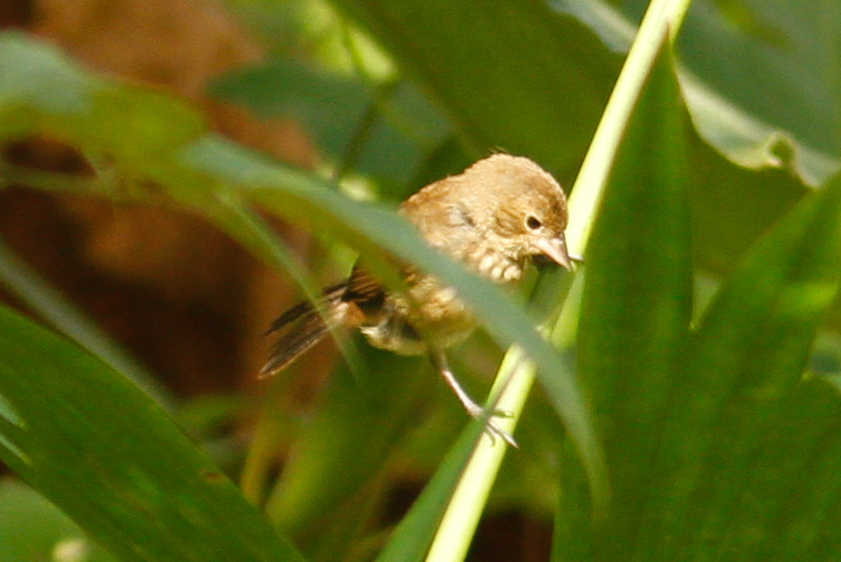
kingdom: Animalia
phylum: Chordata
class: Aves
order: Passeriformes
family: Thraupidae
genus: Volatinia
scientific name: Volatinia jacarina
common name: Blue-black grassquit
